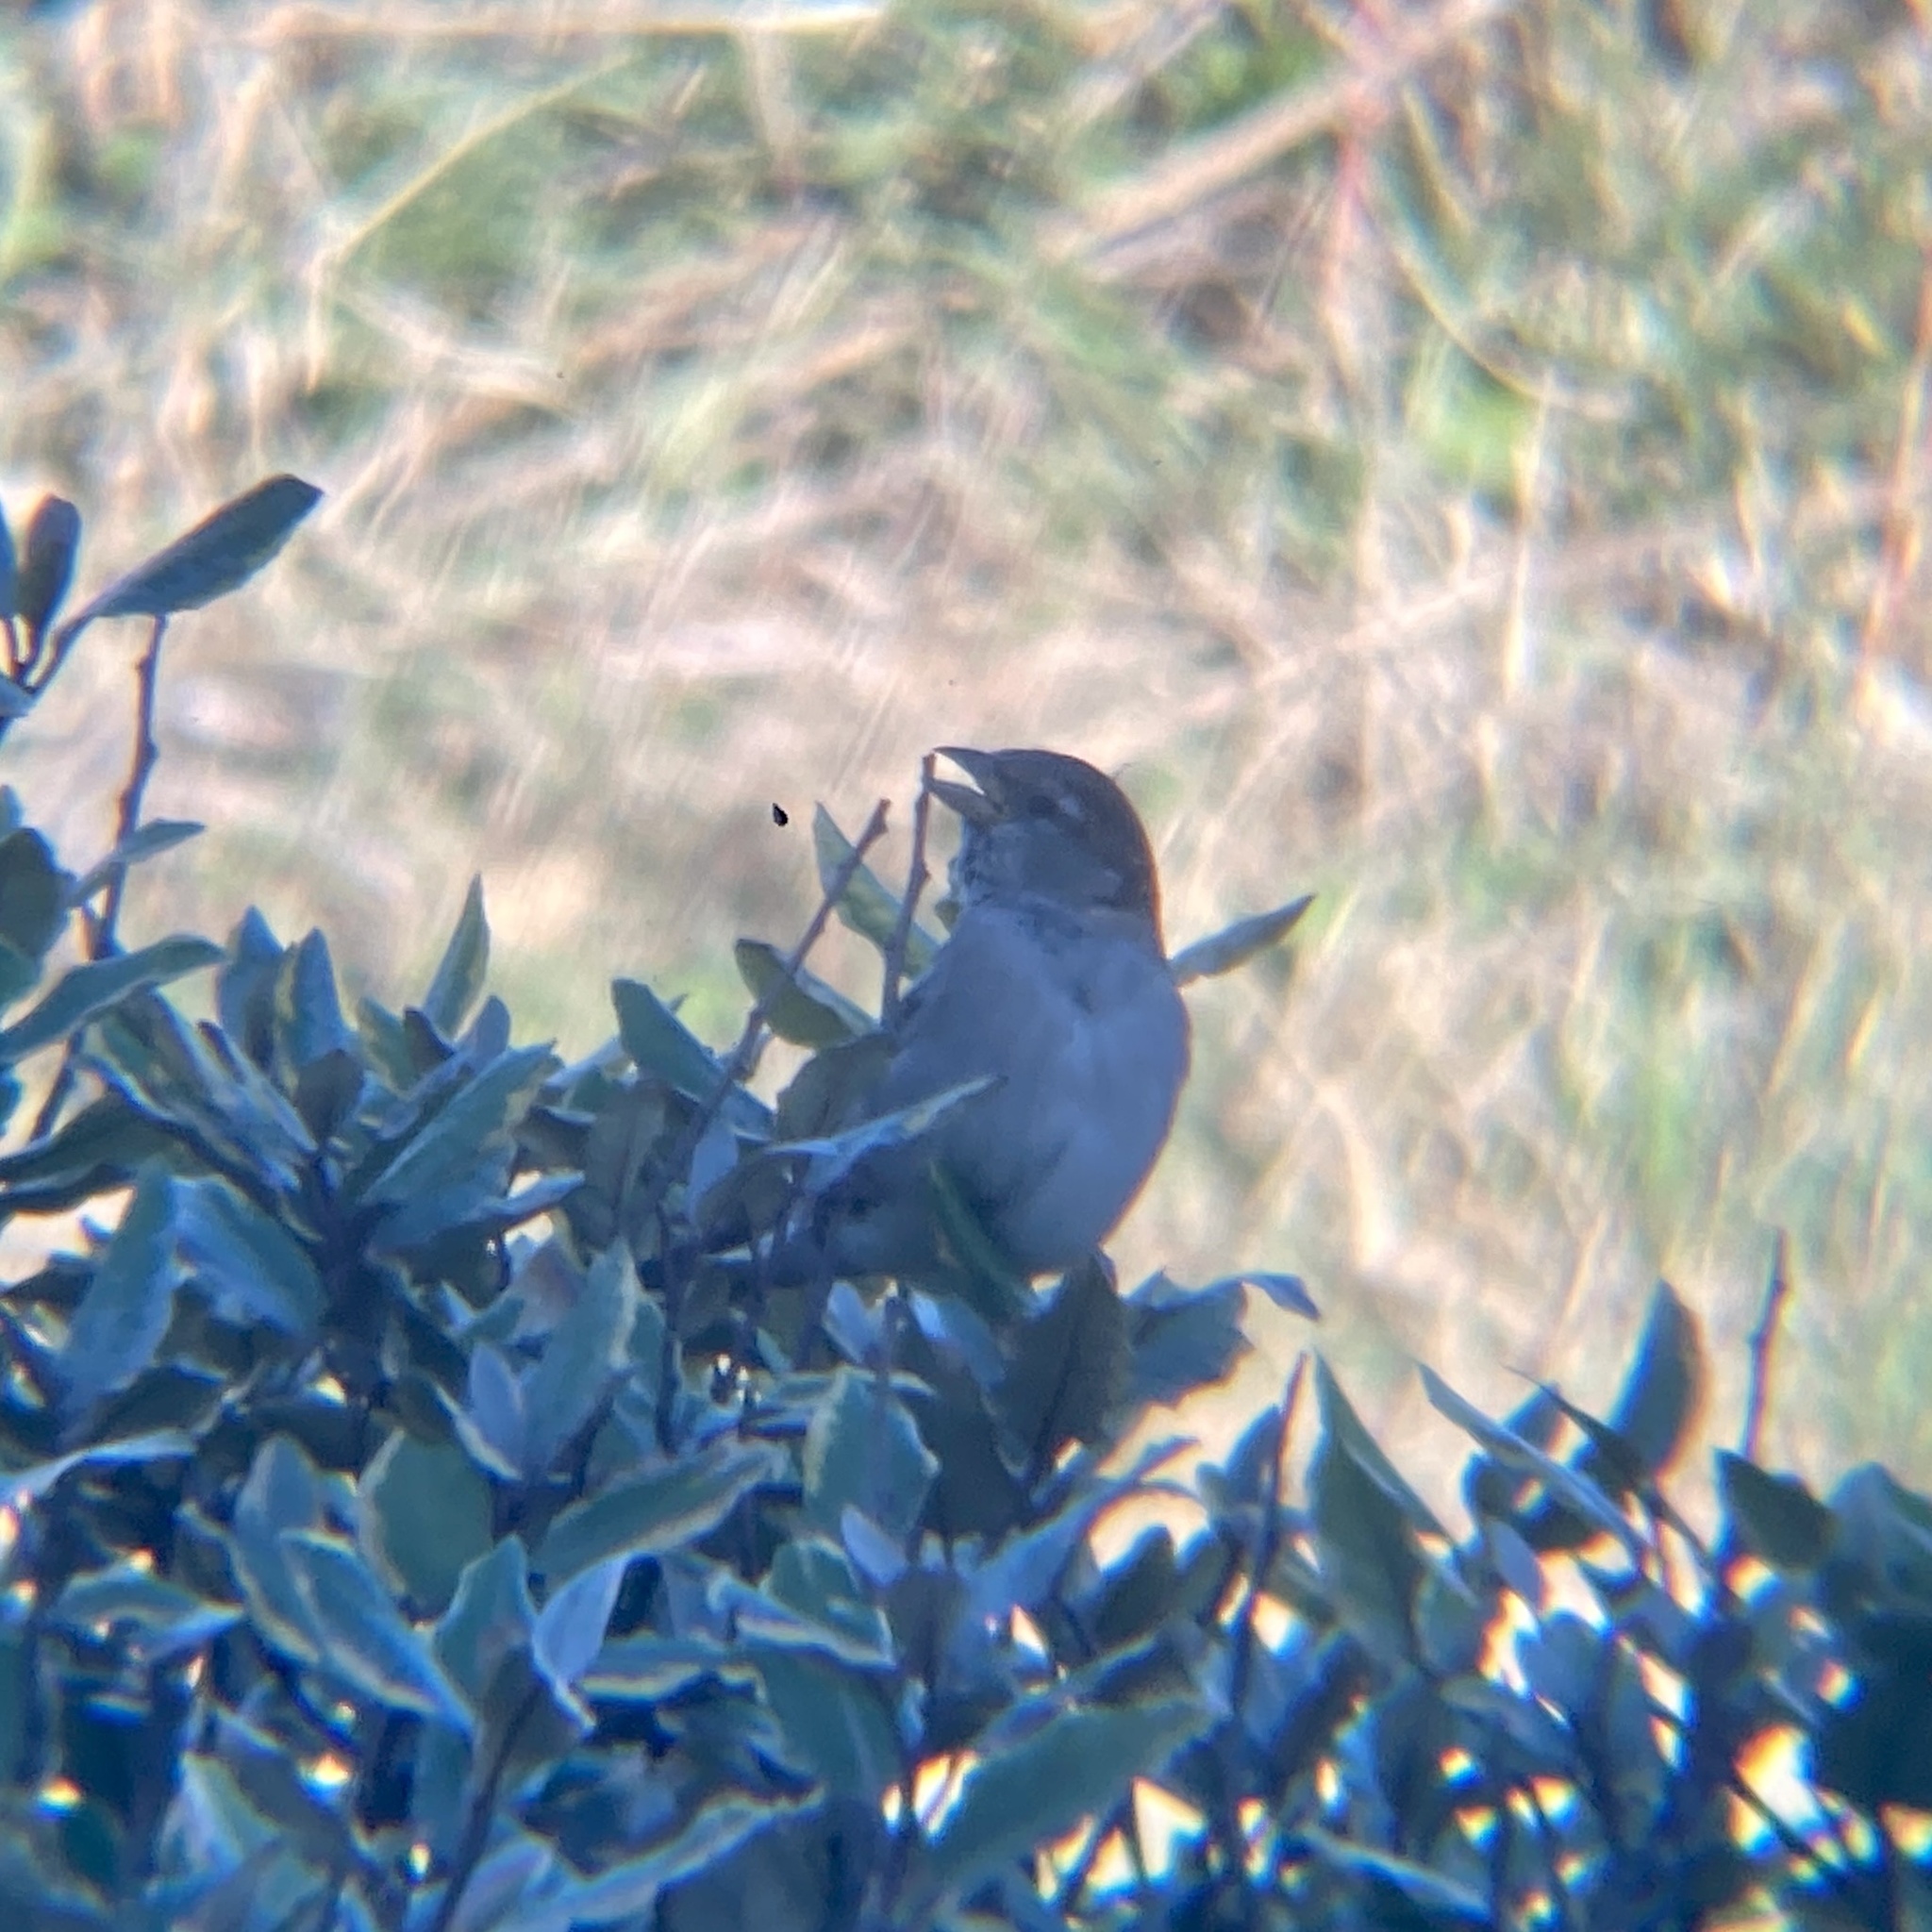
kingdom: Animalia
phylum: Chordata
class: Aves
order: Passeriformes
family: Passeridae
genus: Passer
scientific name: Passer domesticus
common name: House sparrow
